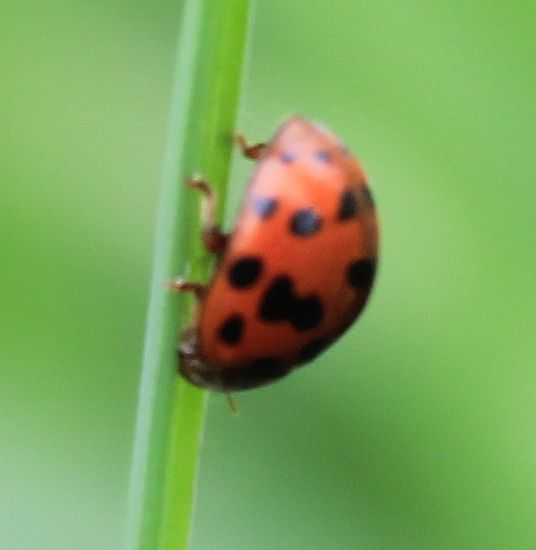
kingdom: Animalia
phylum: Arthropoda
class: Insecta
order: Coleoptera
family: Coccinellidae
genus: Subcoccinella
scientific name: Subcoccinella vigintiquatuorpunctata
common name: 24-spot ladybird
